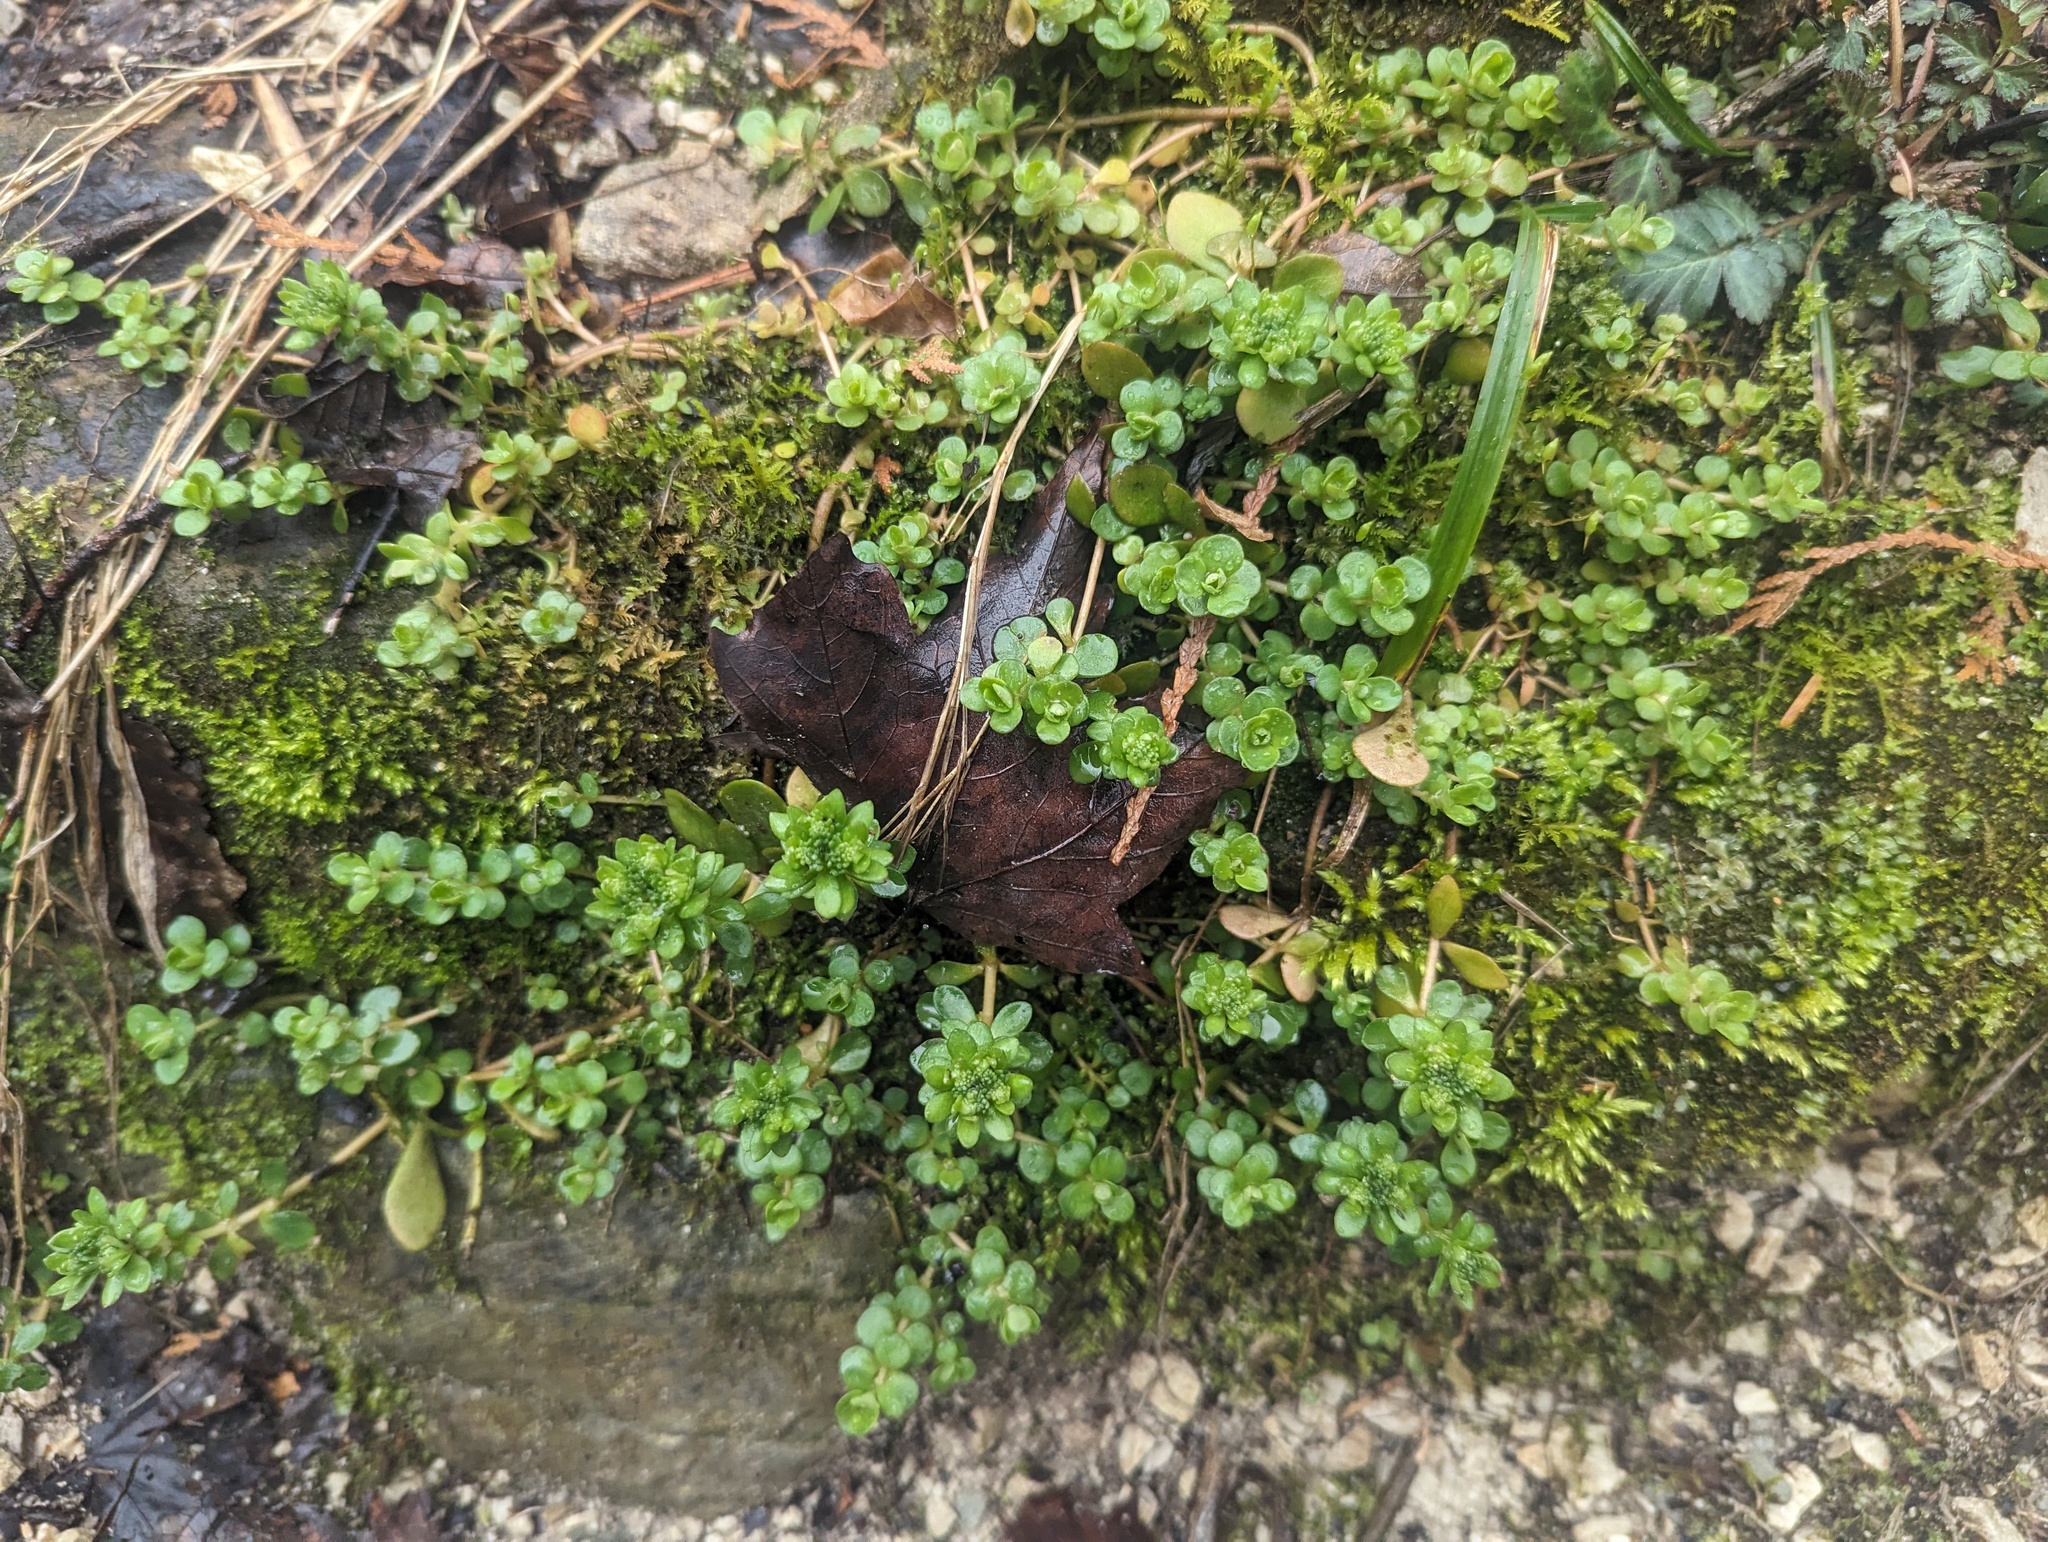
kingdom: Plantae
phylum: Tracheophyta
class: Magnoliopsida
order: Saxifragales
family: Crassulaceae
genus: Sedum
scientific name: Sedum ternatum
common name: Wild stonecrop
